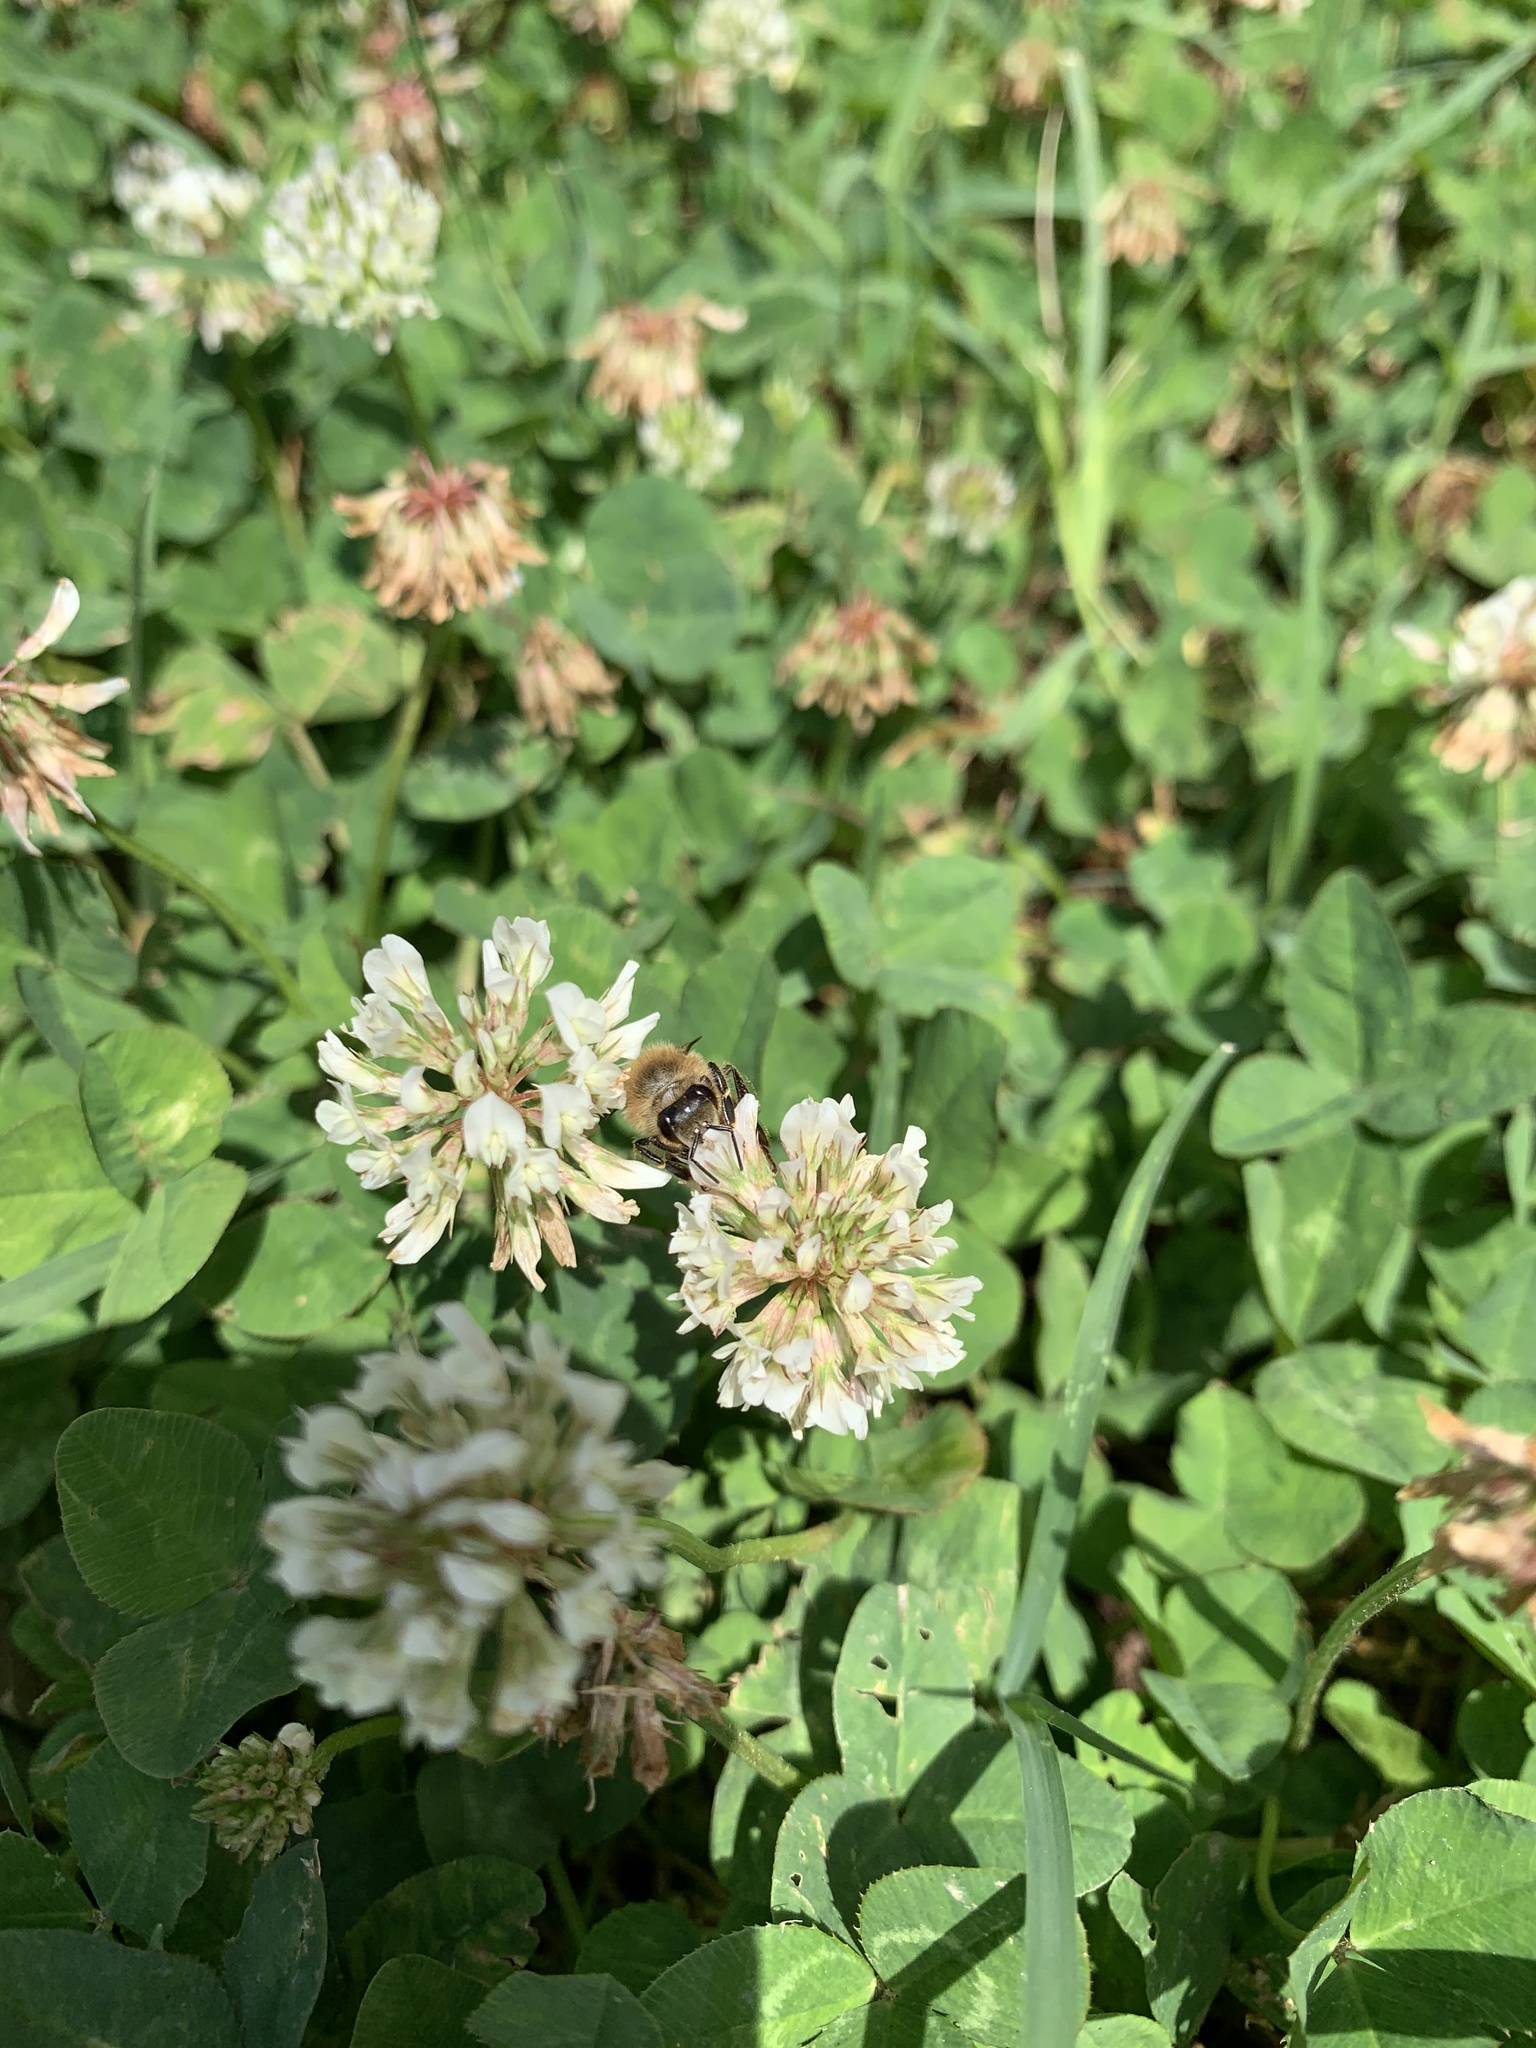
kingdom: Animalia
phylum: Arthropoda
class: Insecta
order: Hymenoptera
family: Apidae
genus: Apis
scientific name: Apis mellifera
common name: Honey bee
